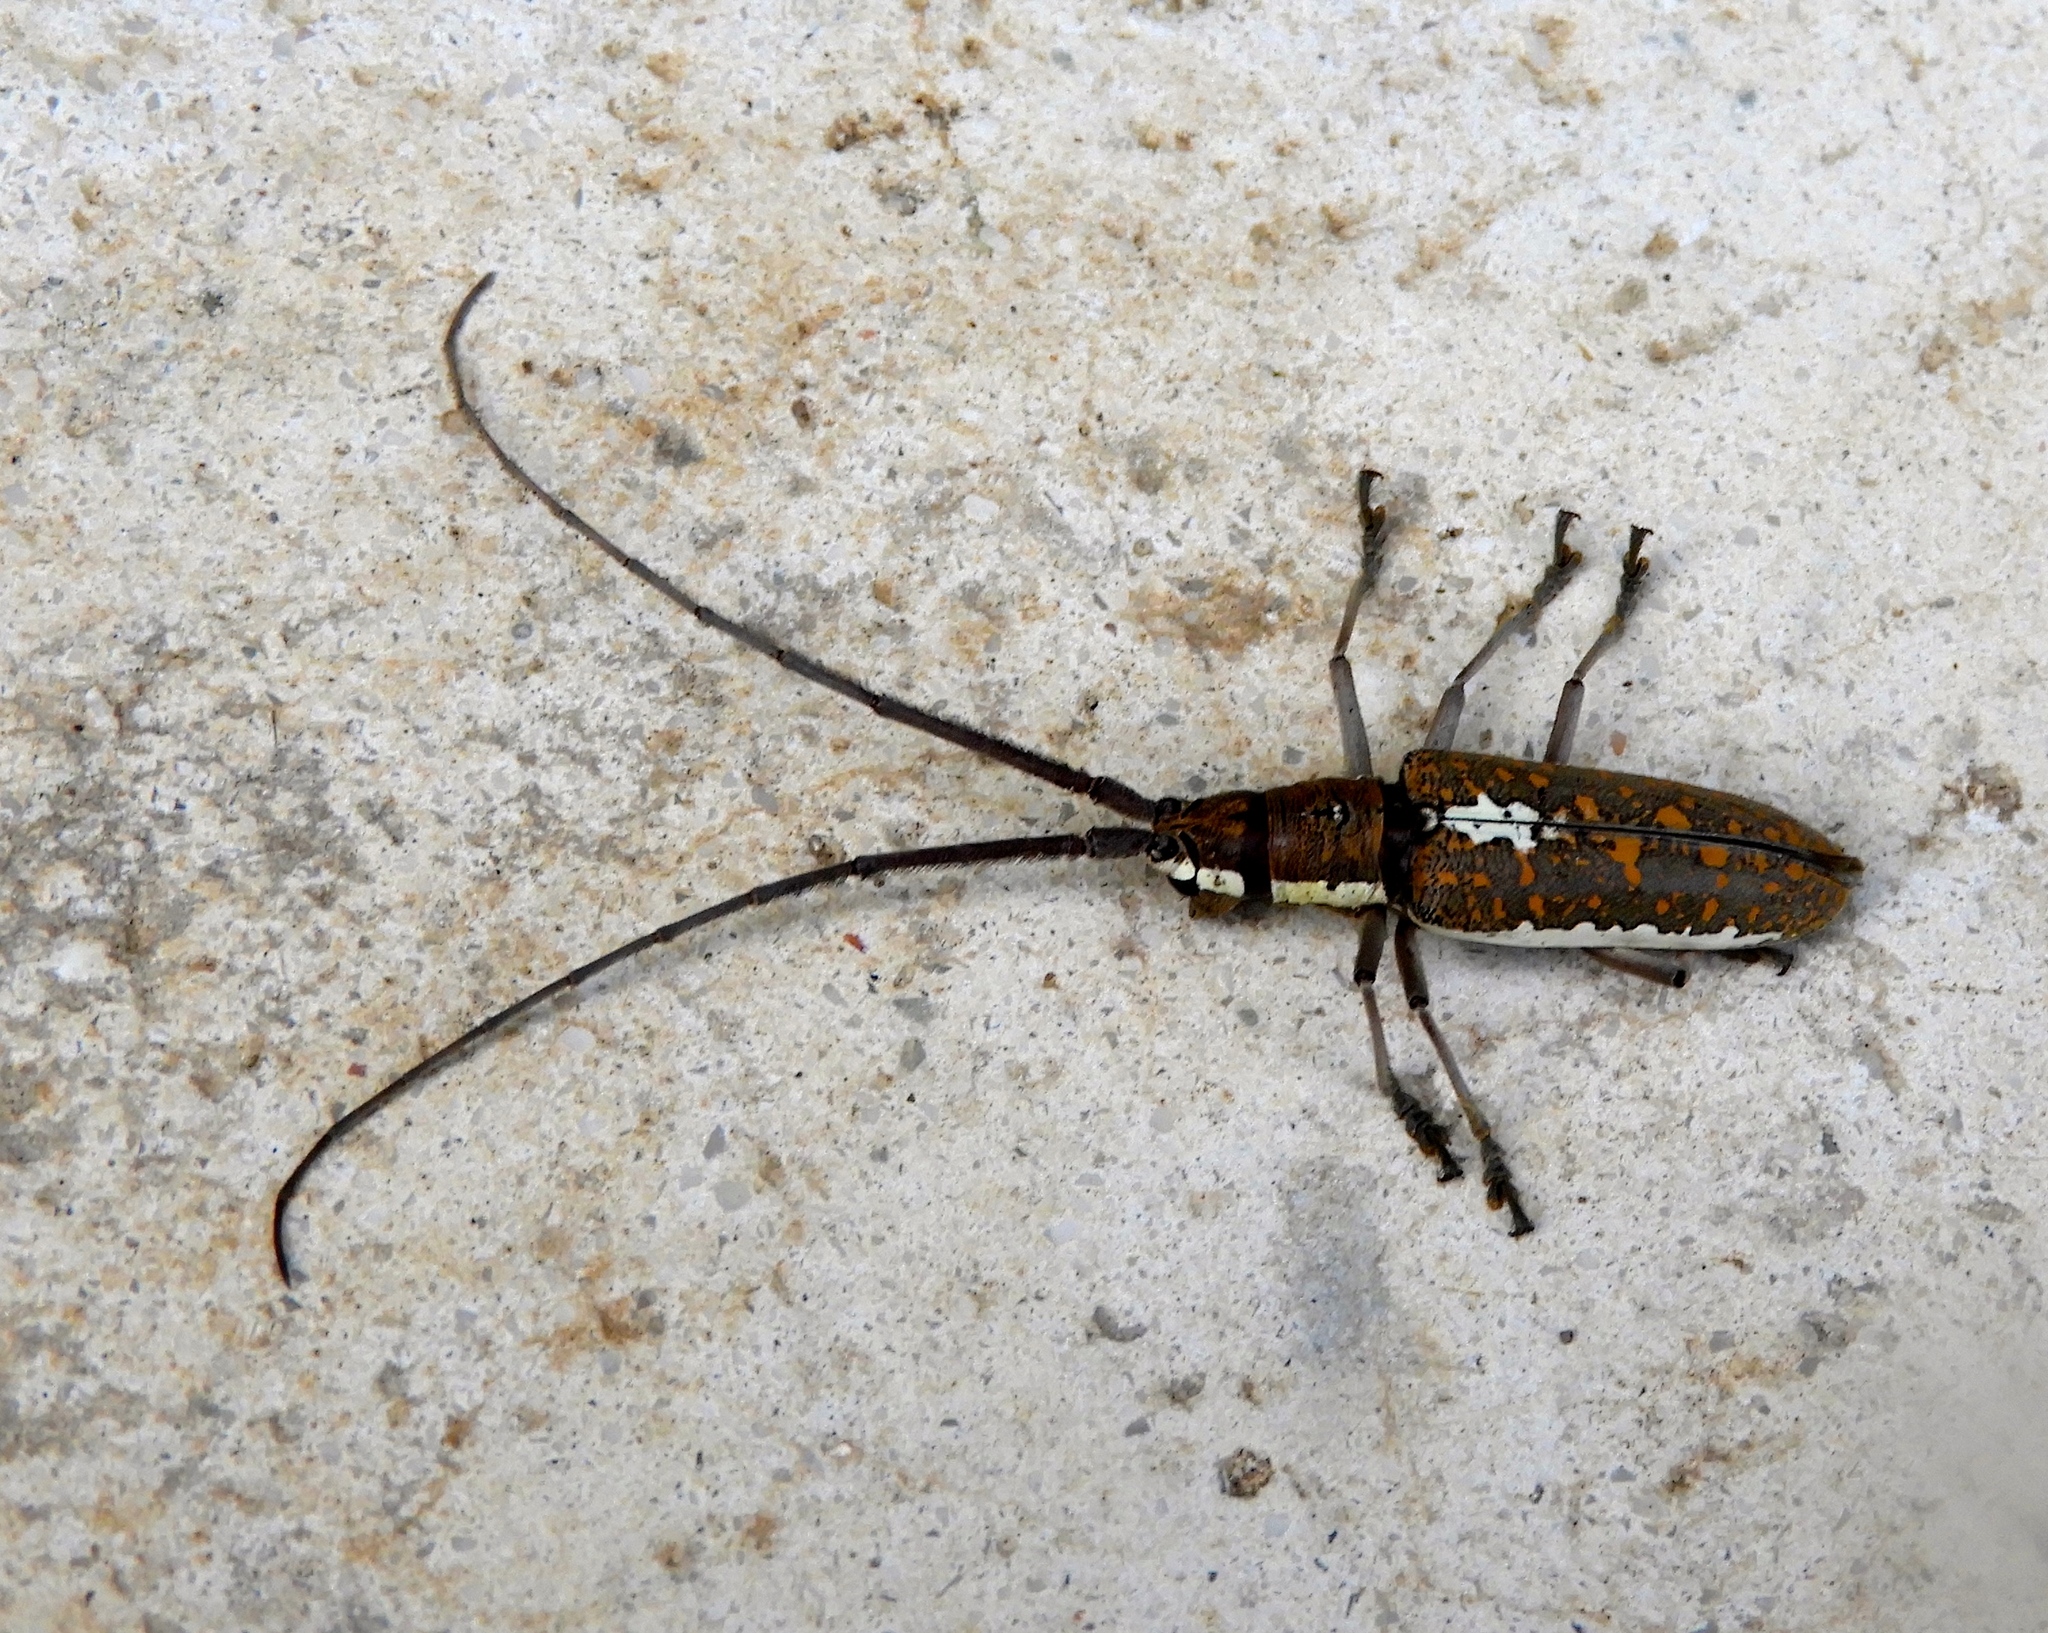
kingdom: Animalia
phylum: Arthropoda
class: Insecta
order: Coleoptera
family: Cerambycidae
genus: Neoptychodes
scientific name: Neoptychodes trilineatus
